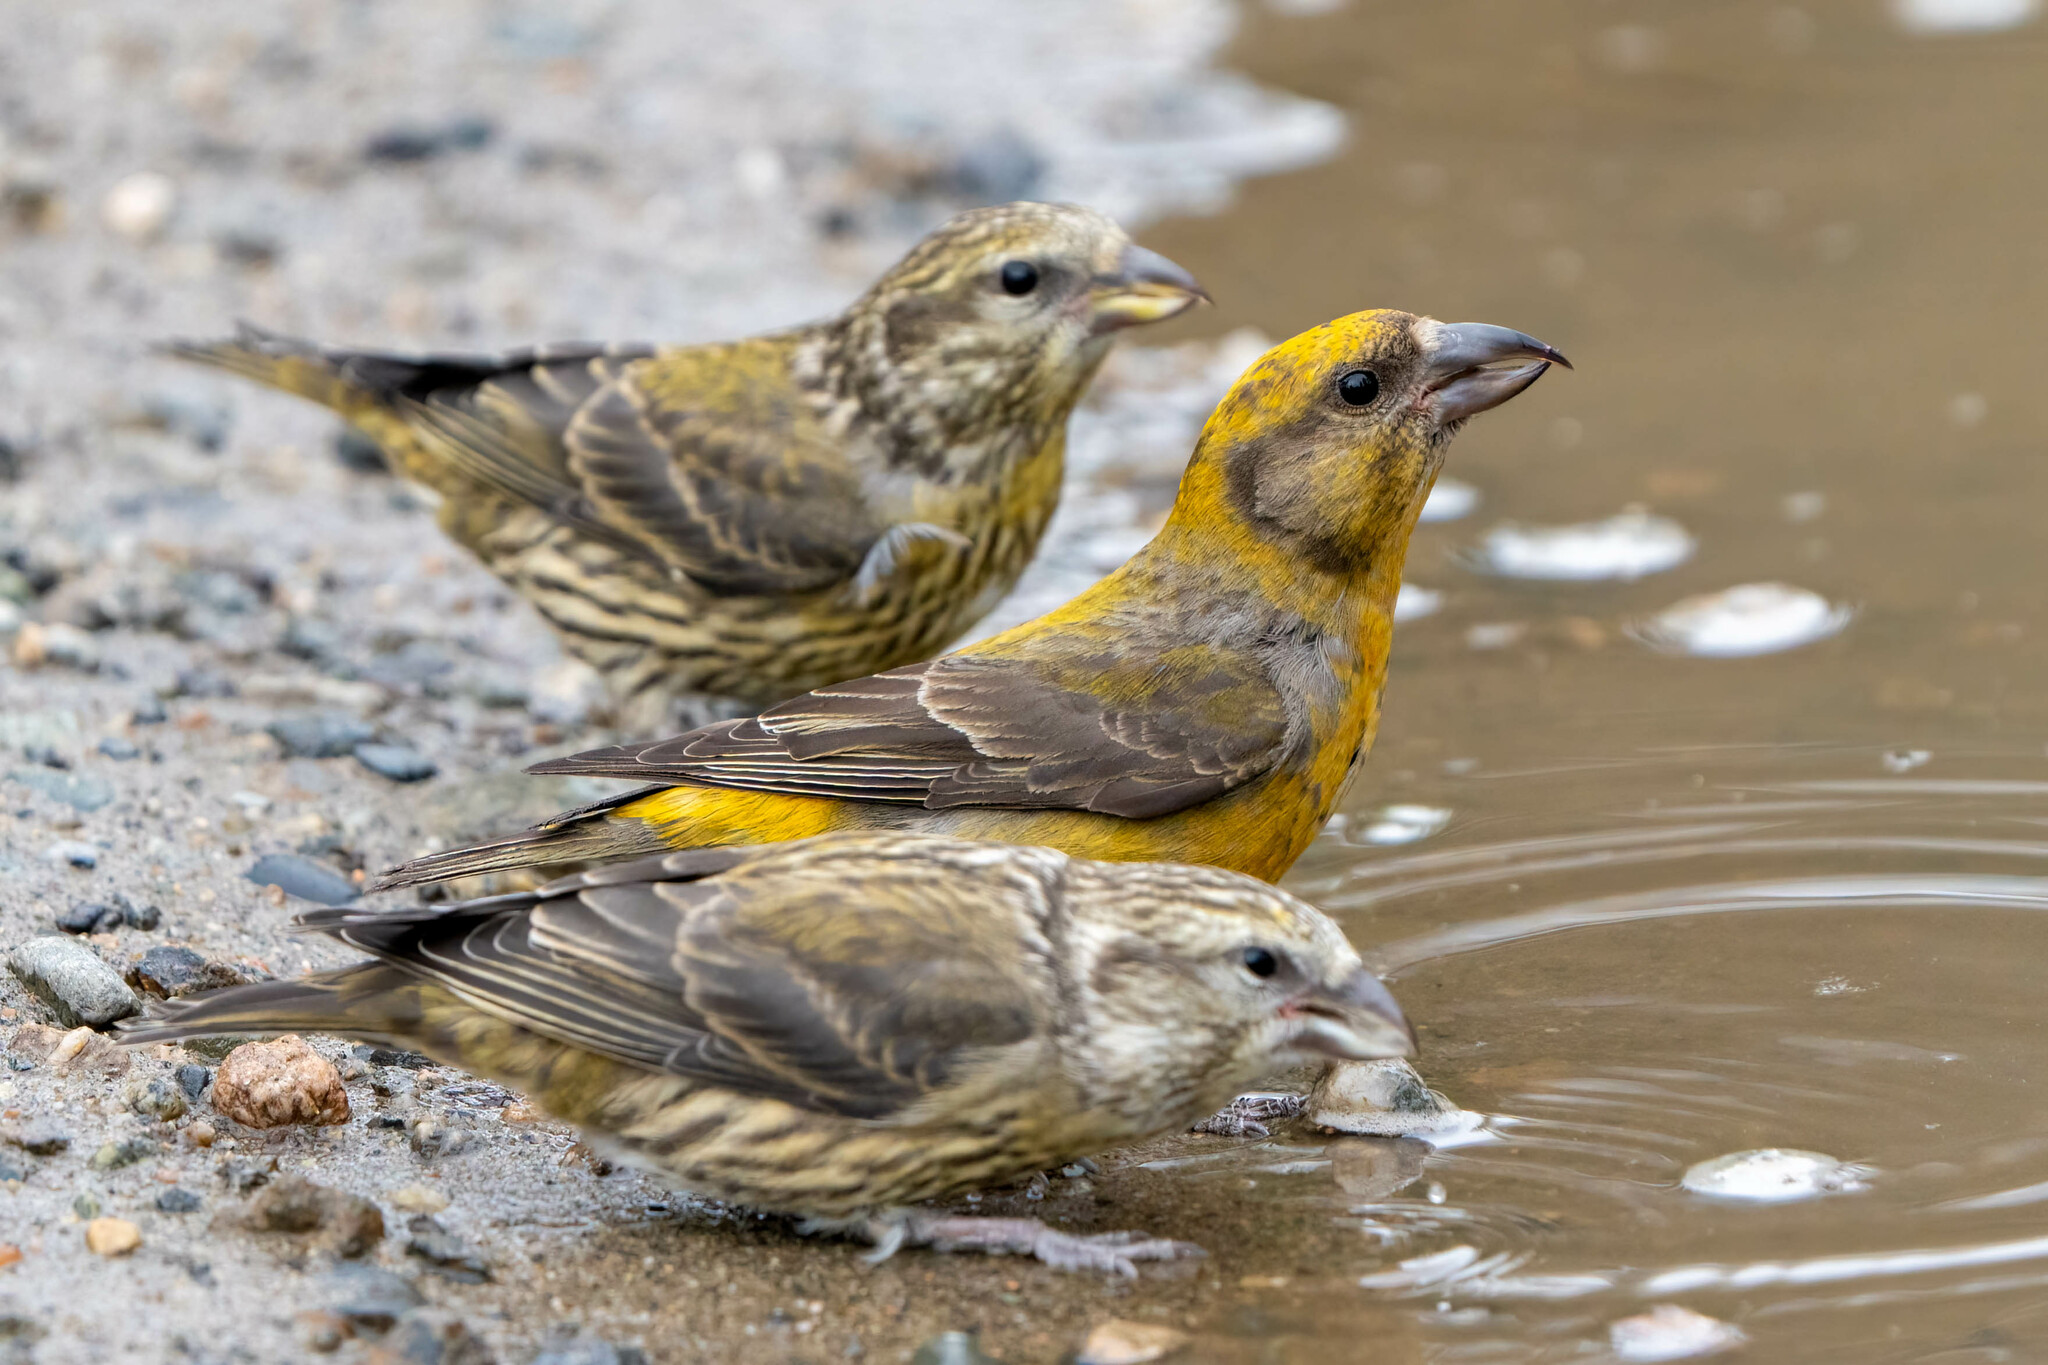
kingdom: Animalia
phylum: Chordata
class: Aves
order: Passeriformes
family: Fringillidae
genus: Loxia
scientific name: Loxia curvirostra
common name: Red crossbill
